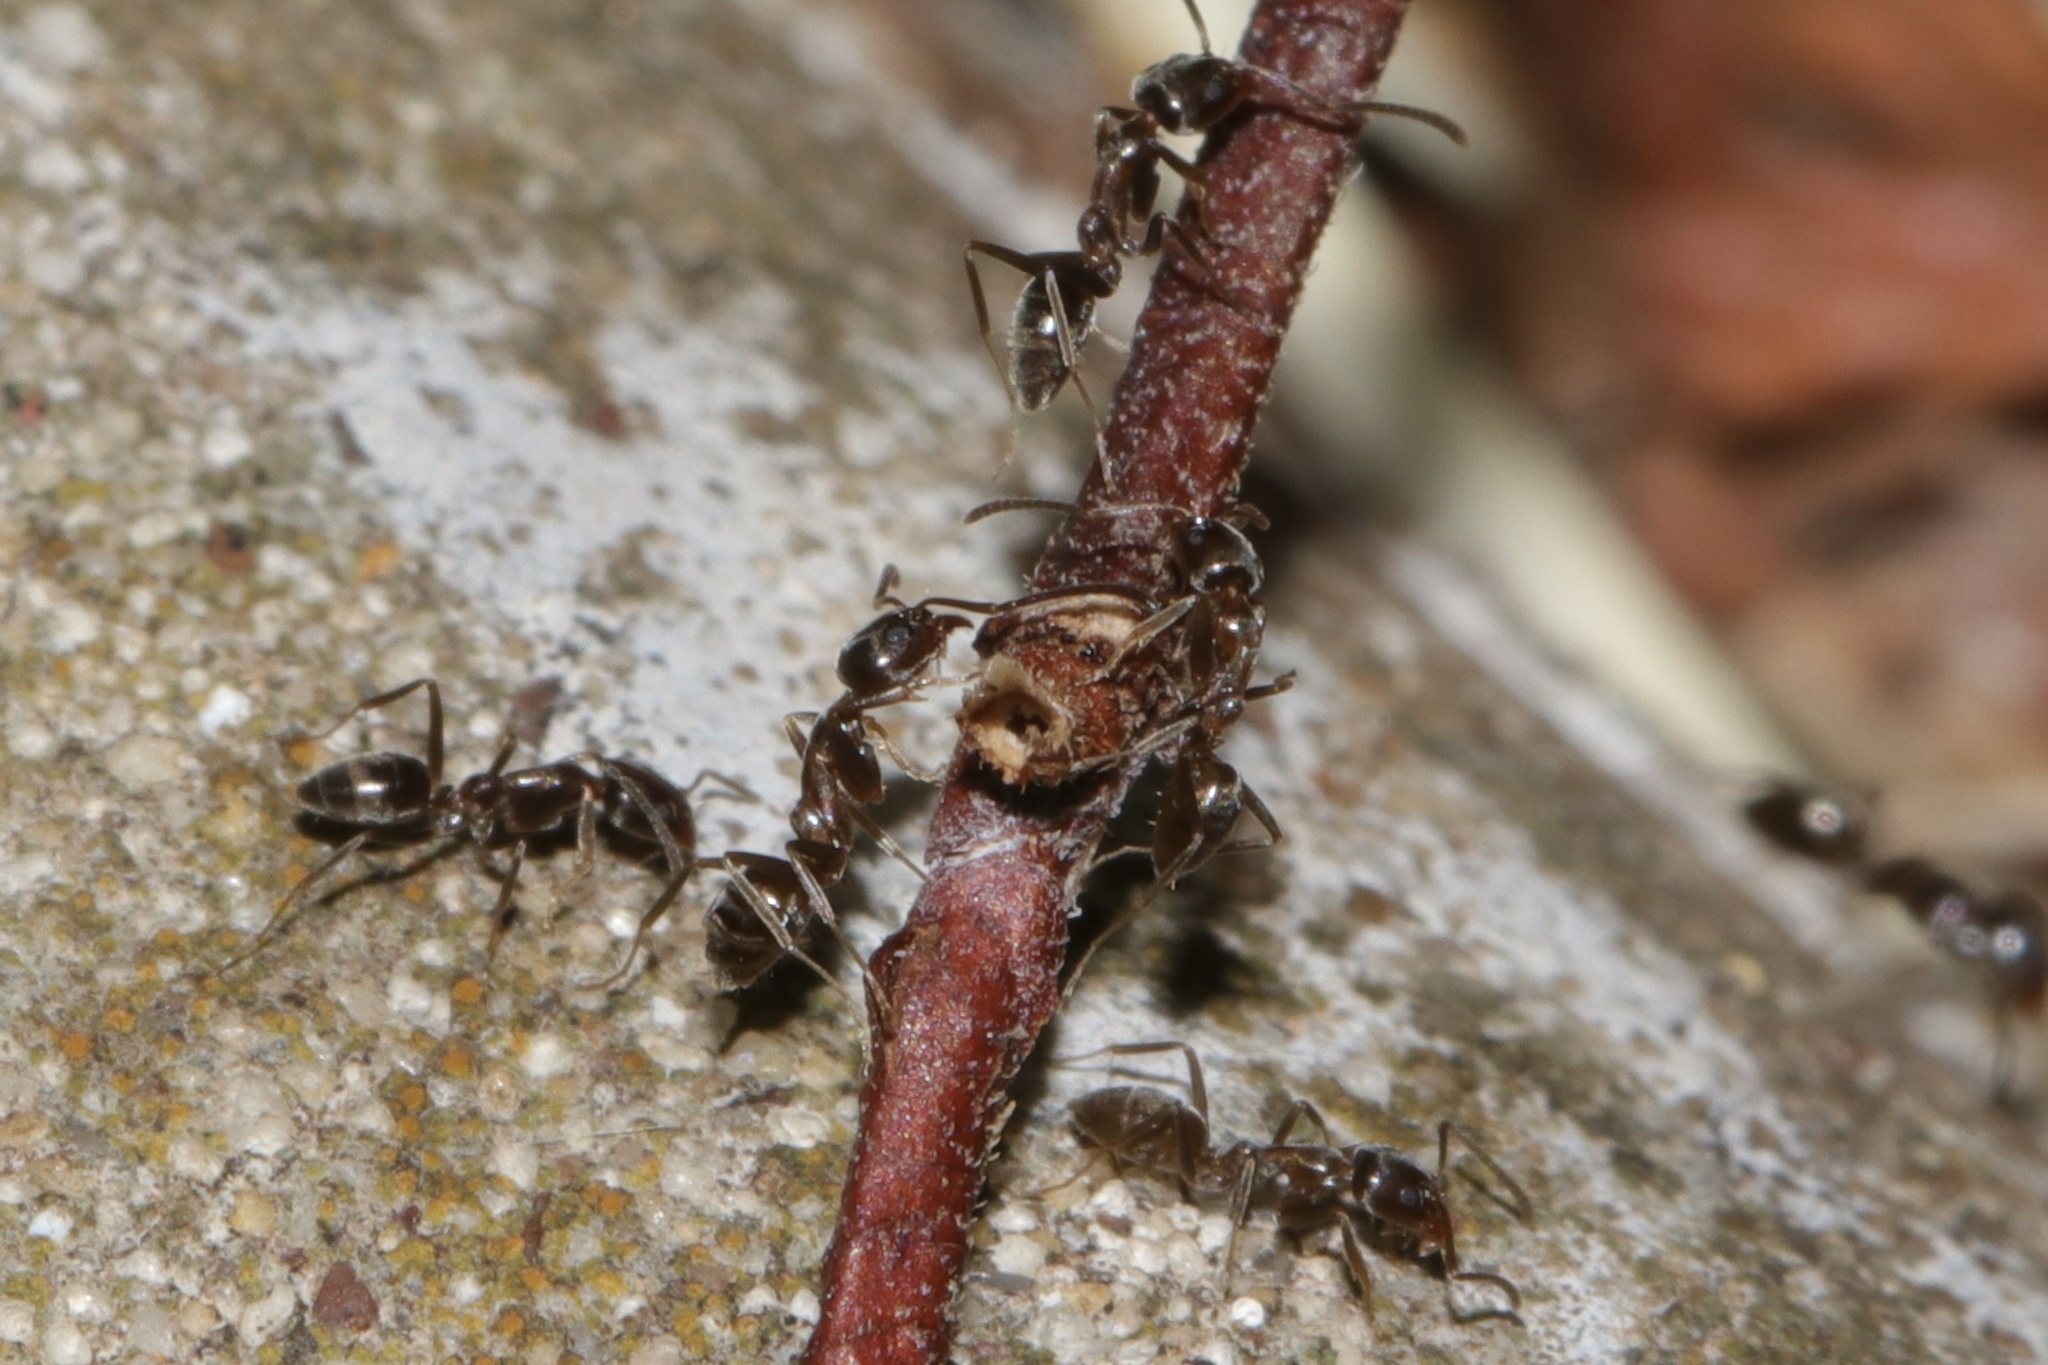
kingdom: Animalia
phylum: Arthropoda
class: Insecta
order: Hymenoptera
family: Formicidae
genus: Linepithema
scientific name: Linepithema humile
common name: Argentine ant
